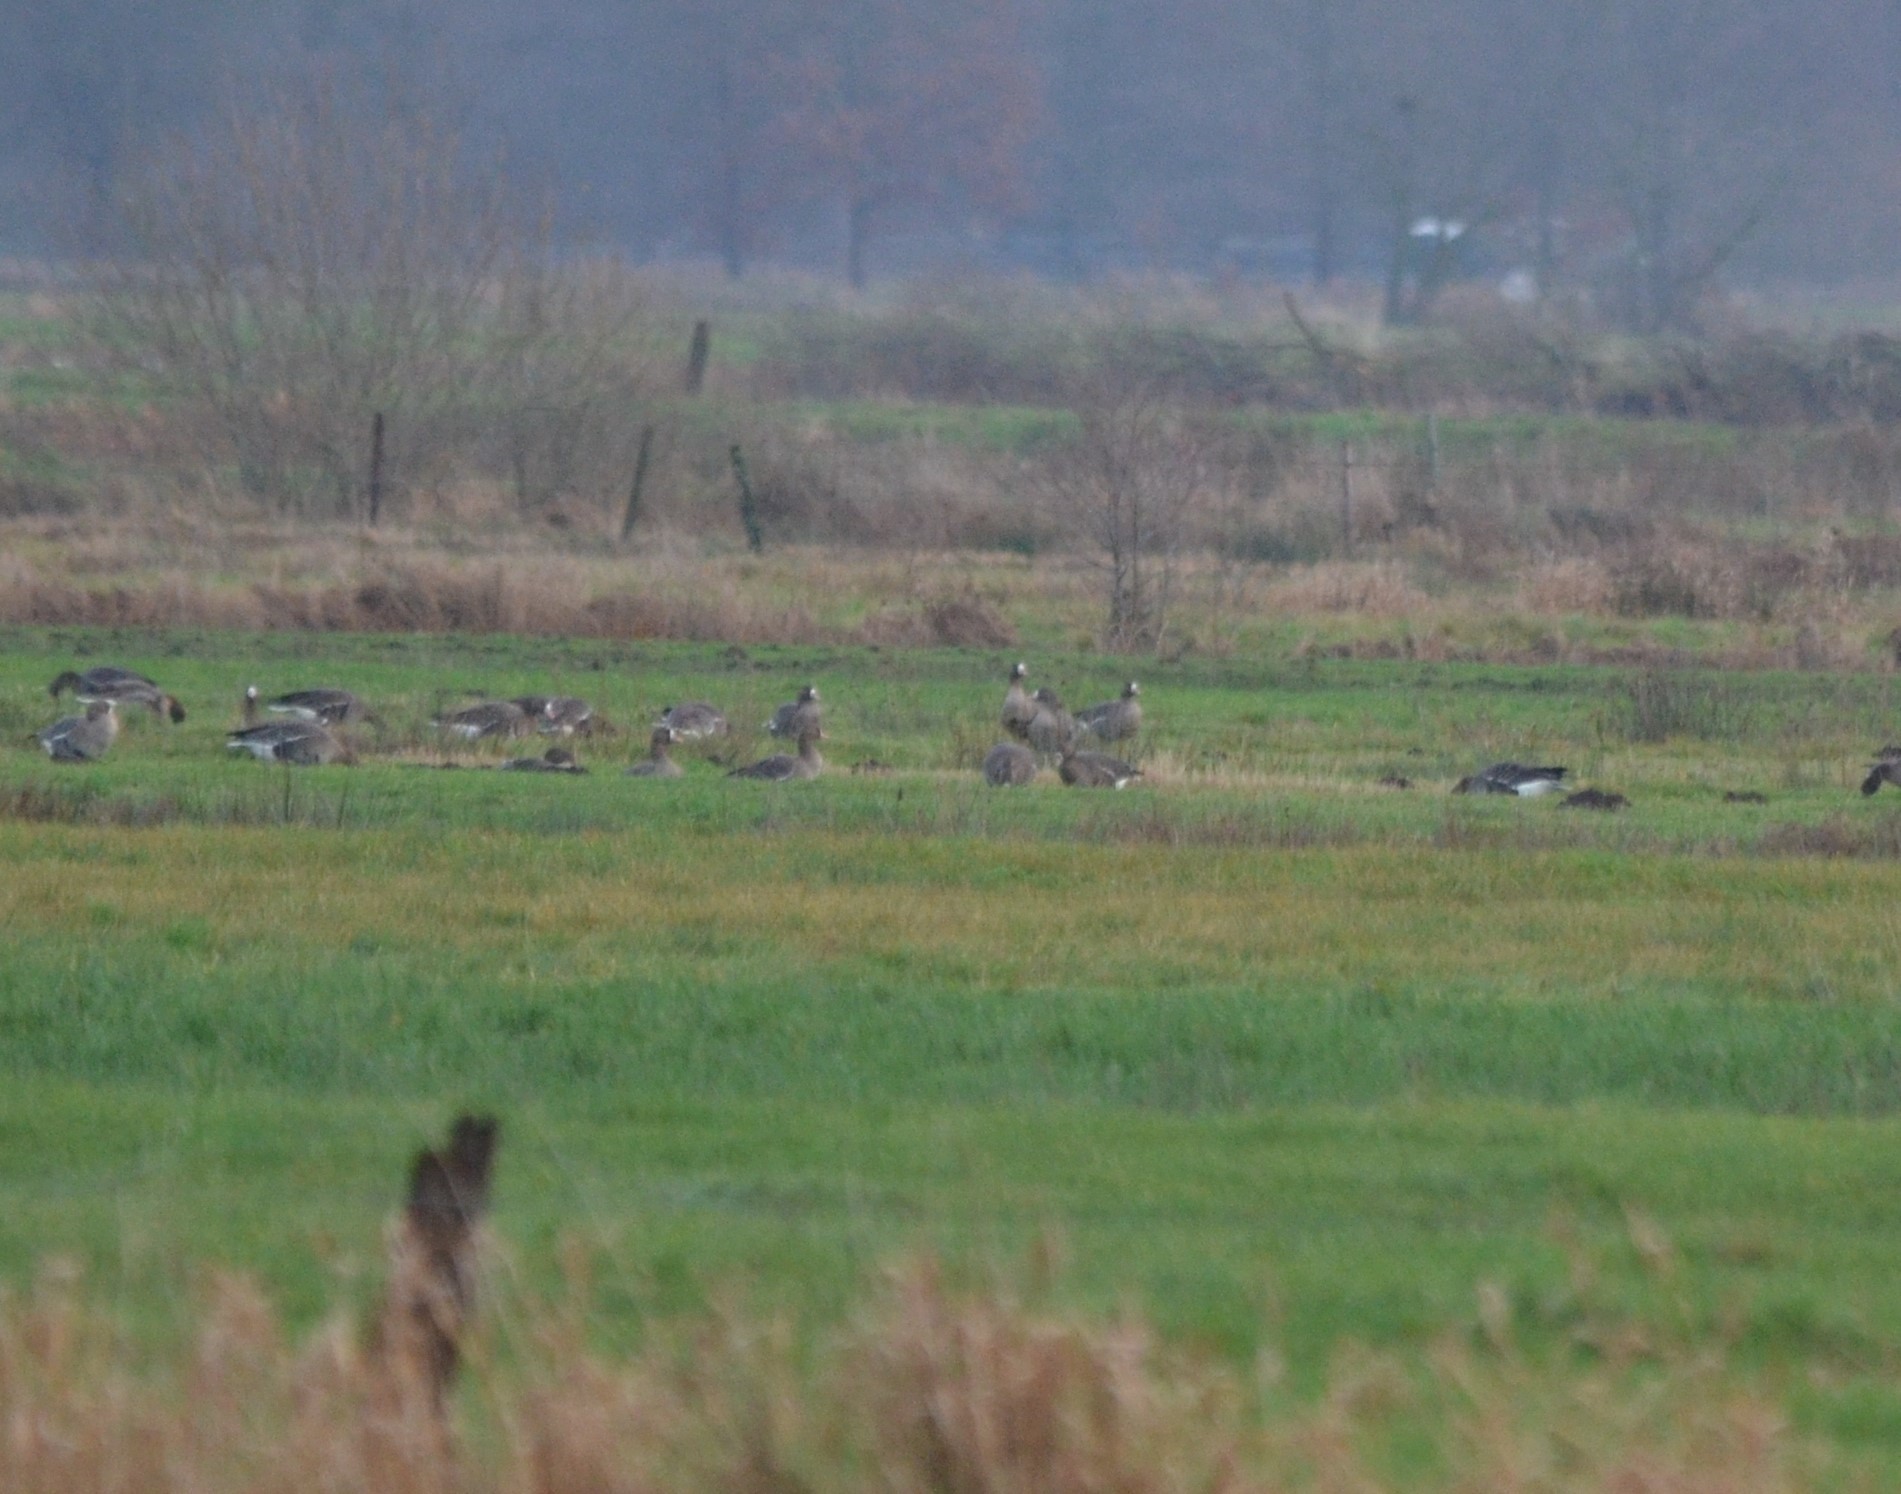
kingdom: Animalia
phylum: Chordata
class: Aves
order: Anseriformes
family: Anatidae
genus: Anser
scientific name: Anser albifrons
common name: Greater white-fronted goose
